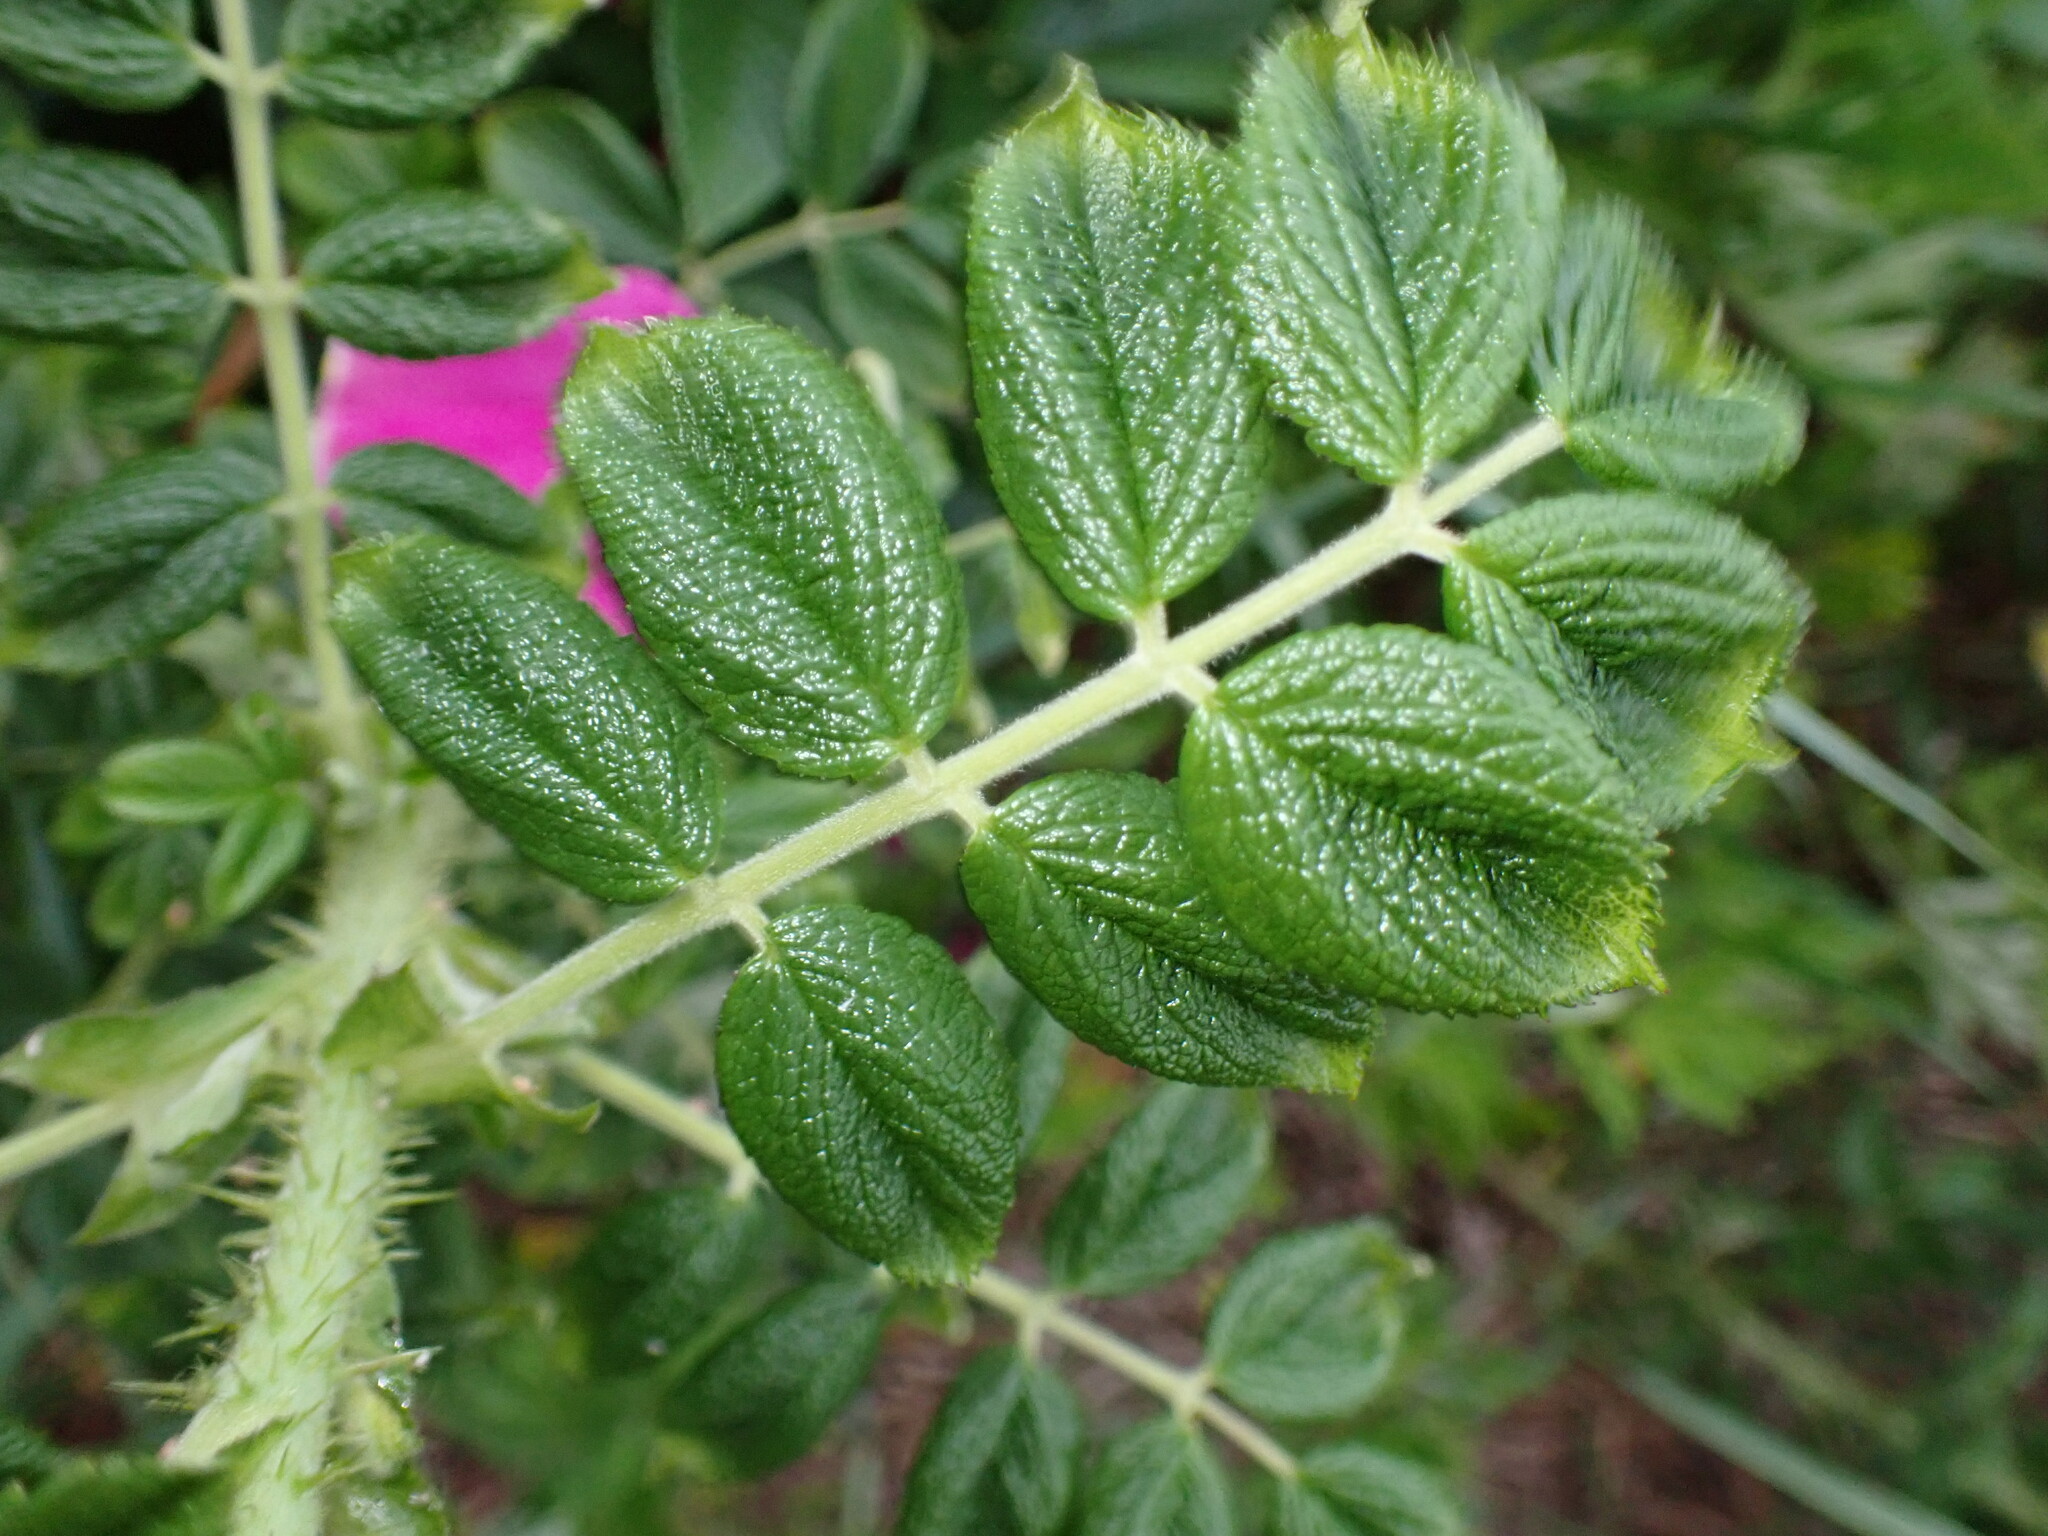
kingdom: Plantae
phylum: Tracheophyta
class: Magnoliopsida
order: Rosales
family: Rosaceae
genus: Rosa
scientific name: Rosa rugosa
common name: Japanese rose
